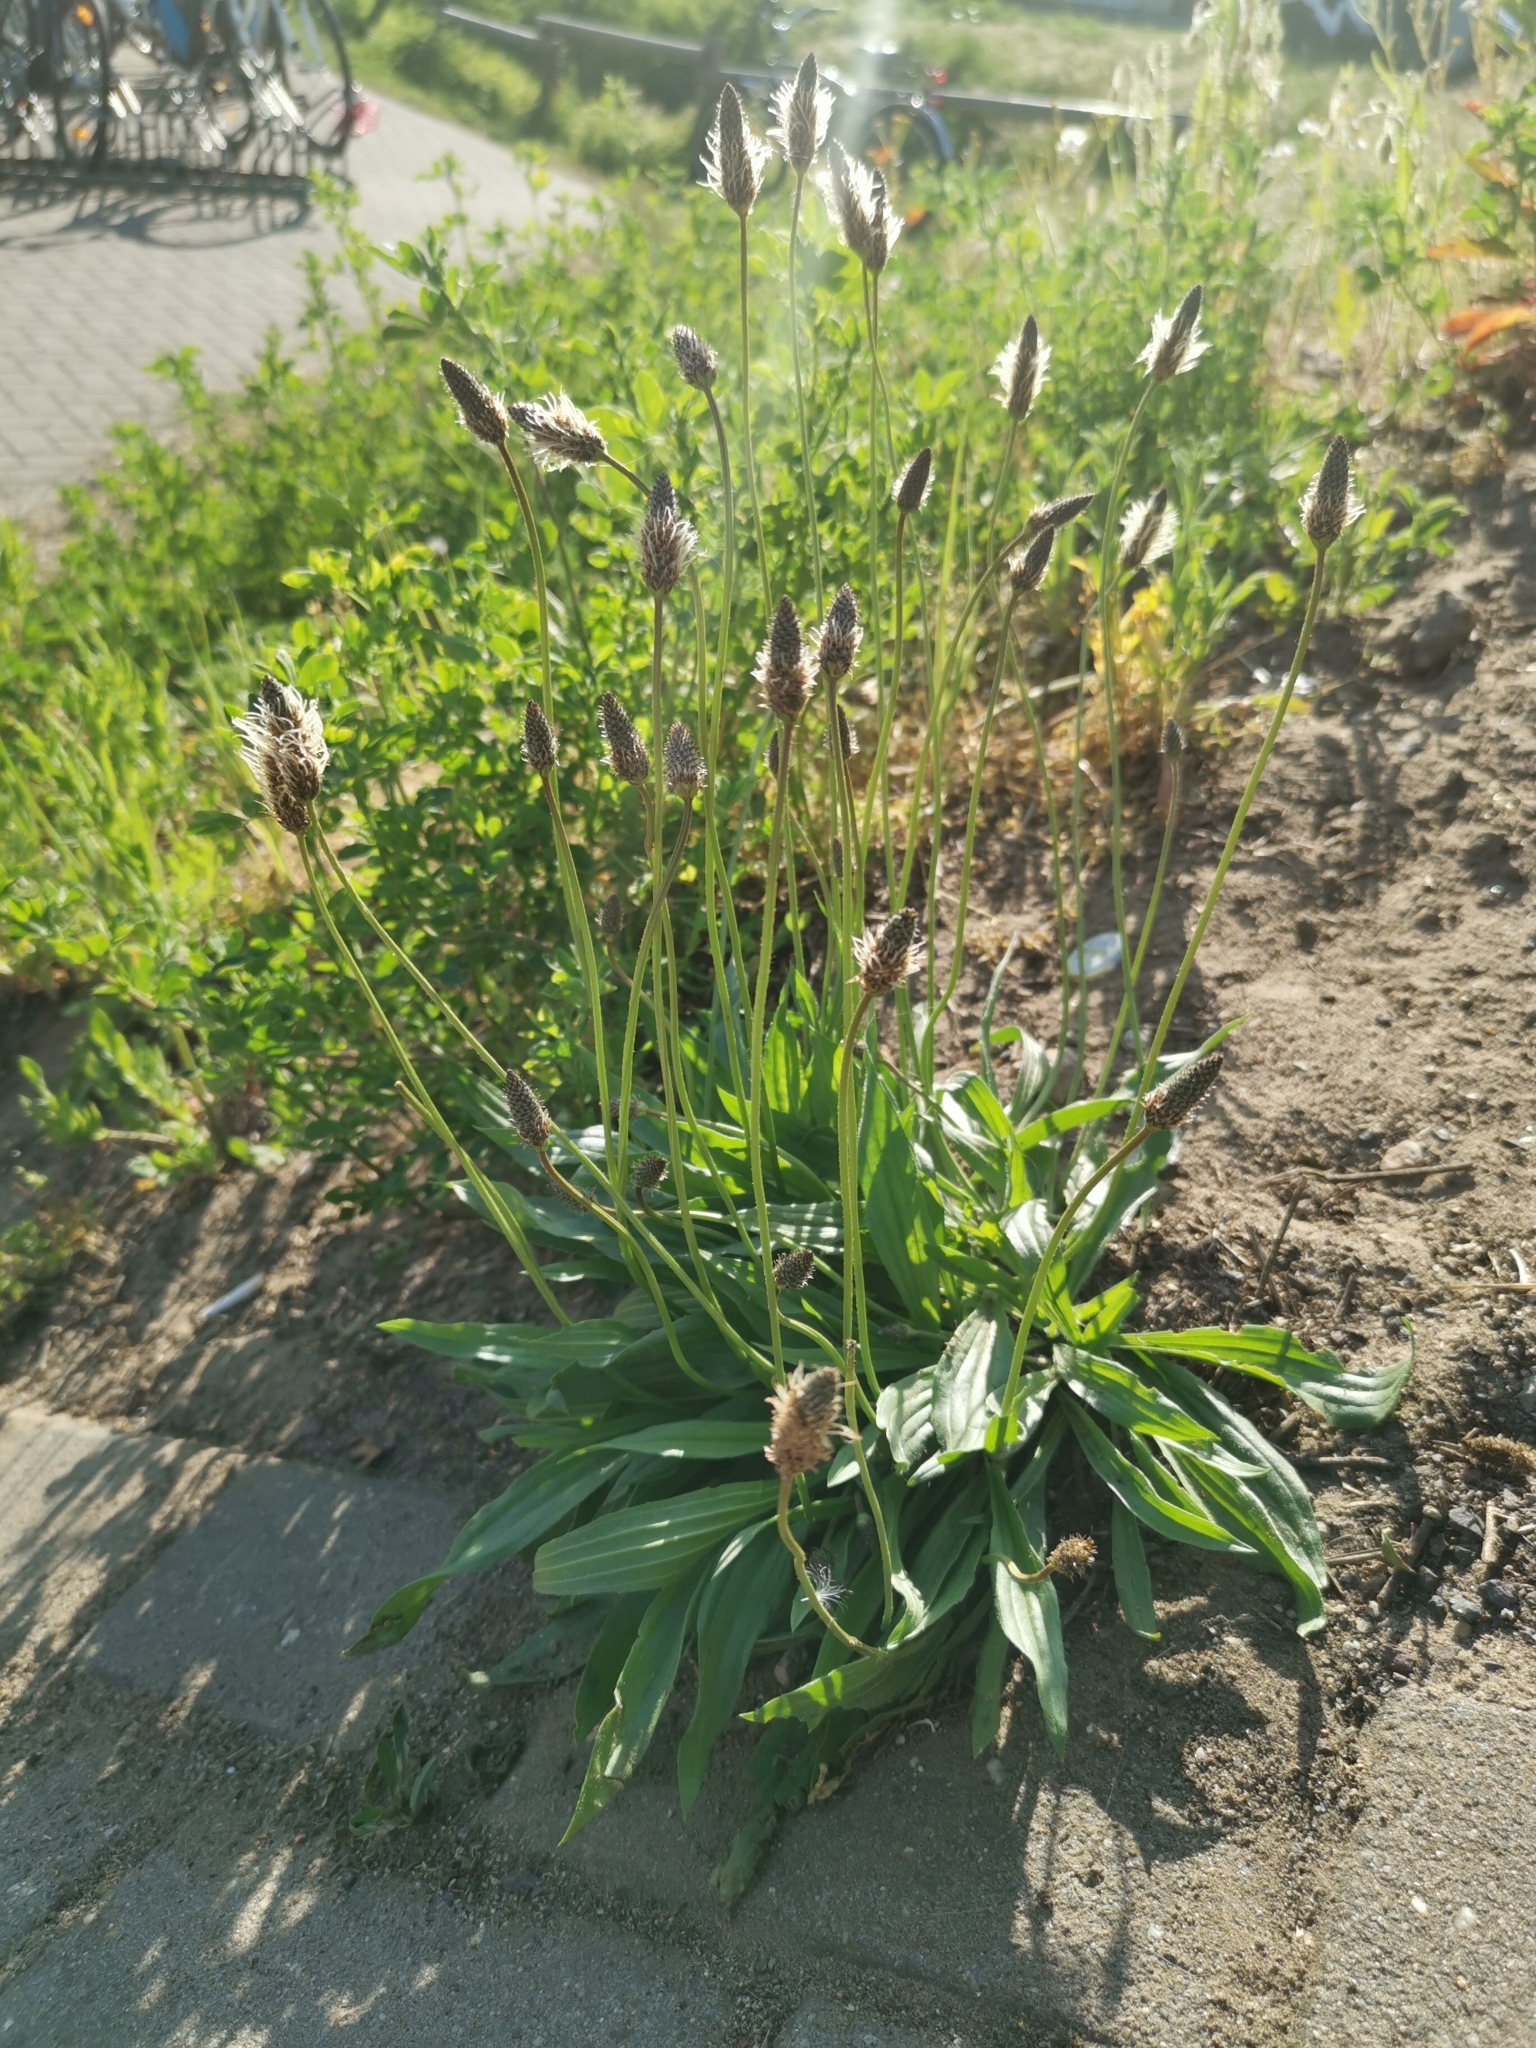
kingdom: Plantae
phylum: Tracheophyta
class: Magnoliopsida
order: Lamiales
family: Plantaginaceae
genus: Plantago
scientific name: Plantago lanceolata
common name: Ribwort plantain
